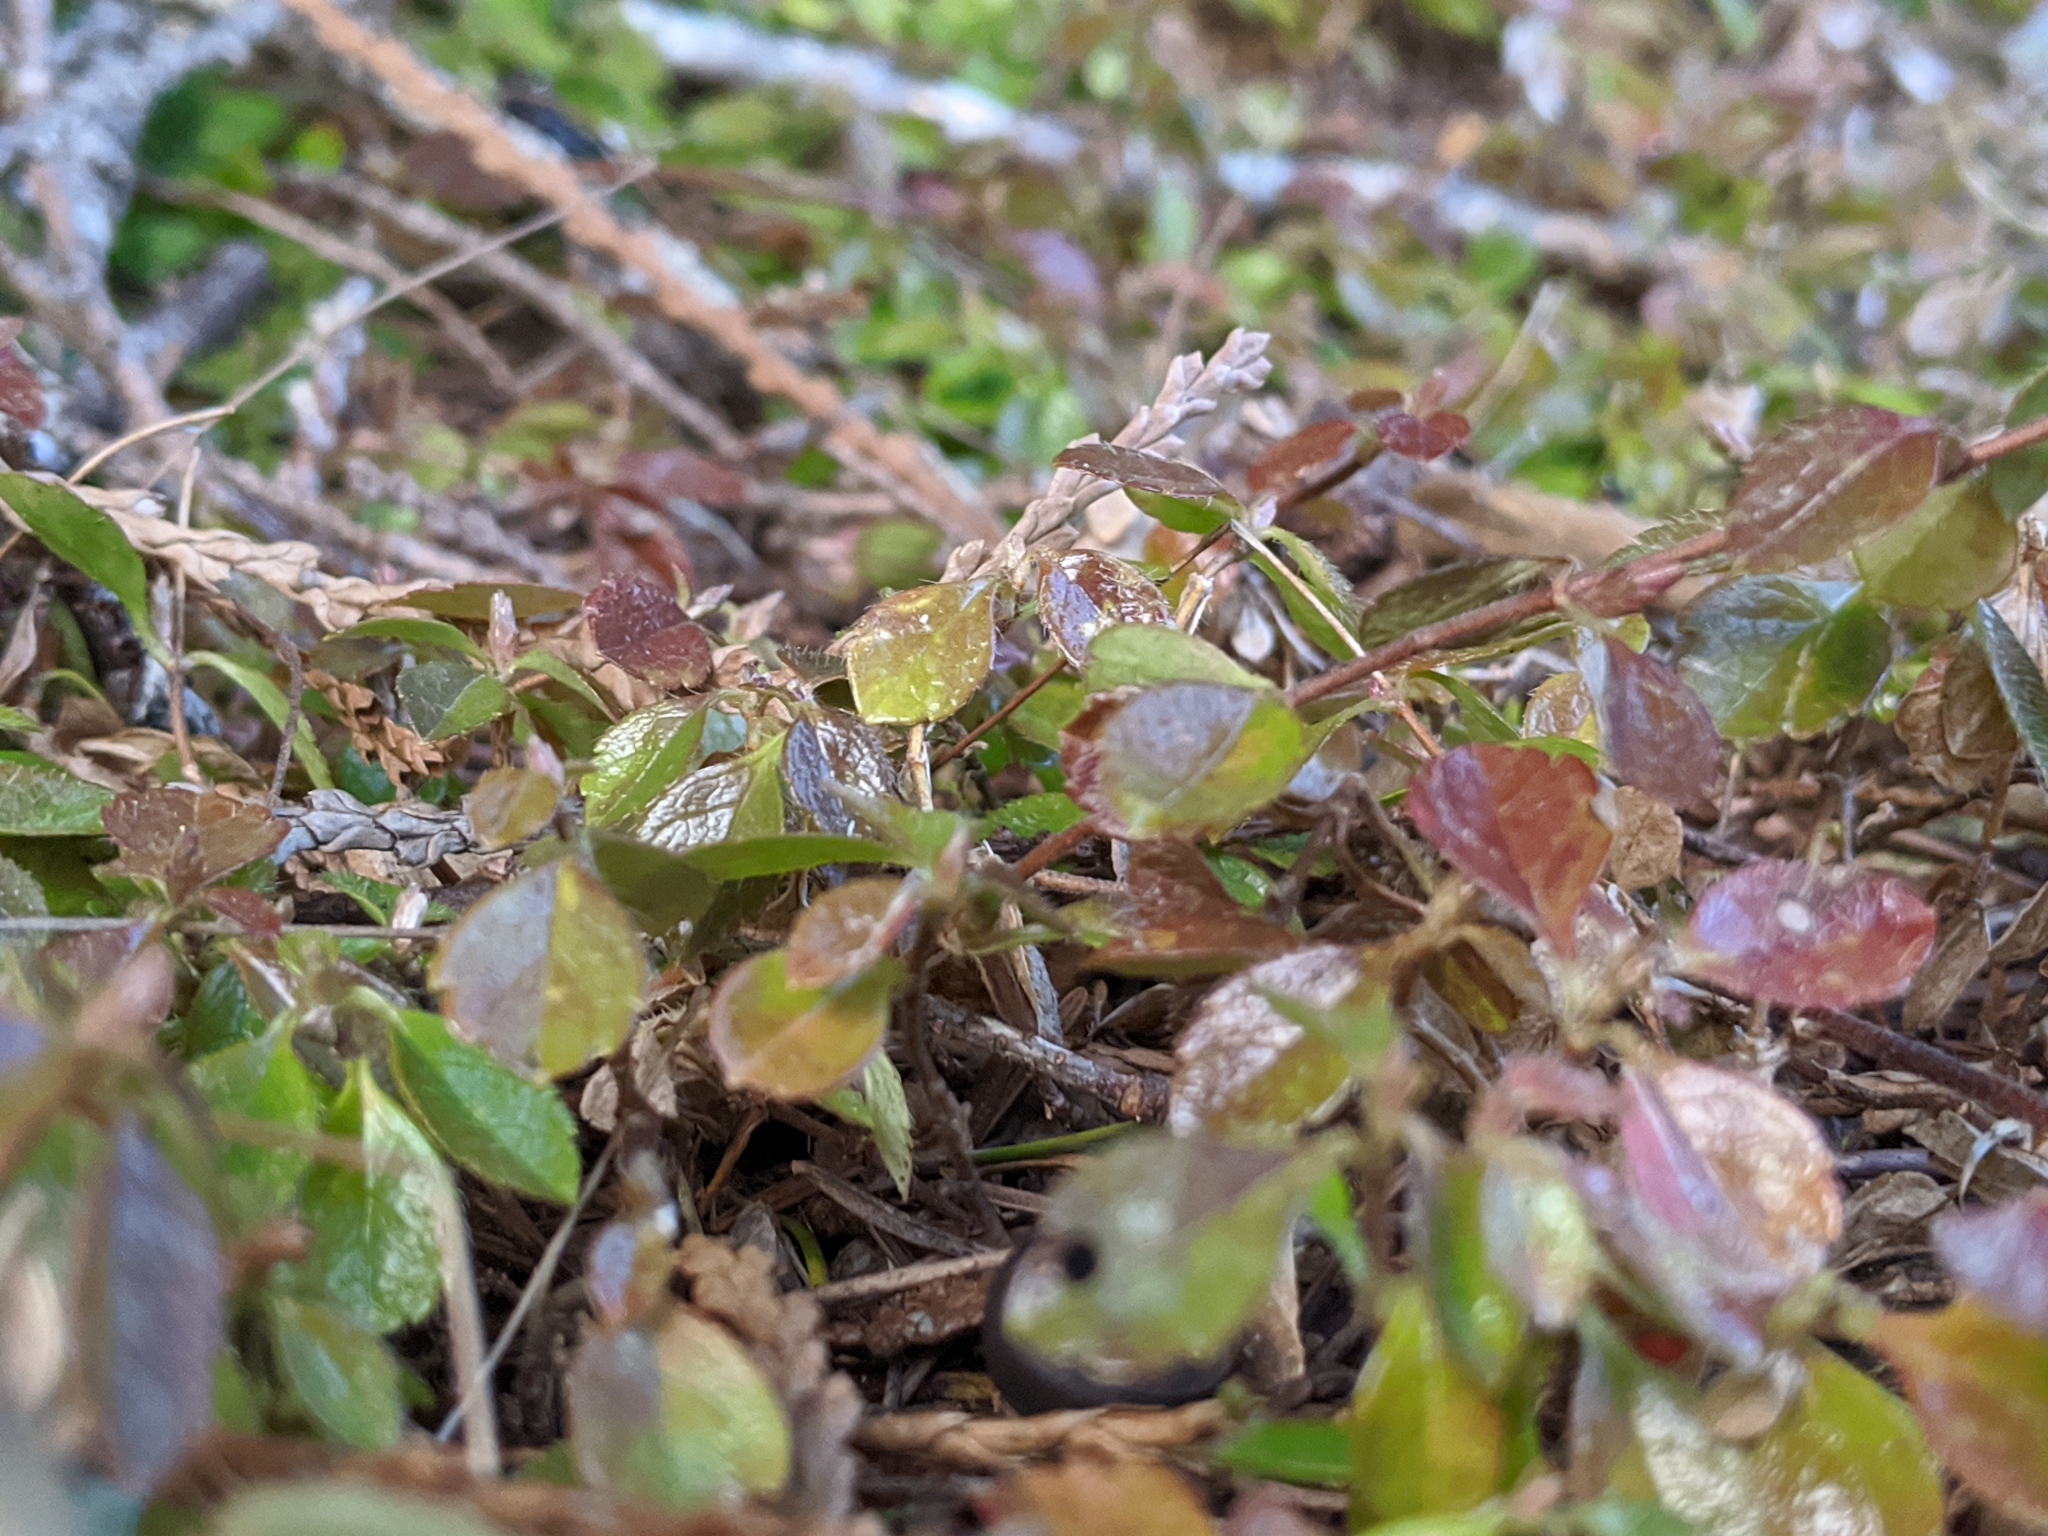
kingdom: Plantae
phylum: Tracheophyta
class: Magnoliopsida
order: Dipsacales
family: Caprifoliaceae
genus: Linnaea
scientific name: Linnaea borealis
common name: Twinflower
